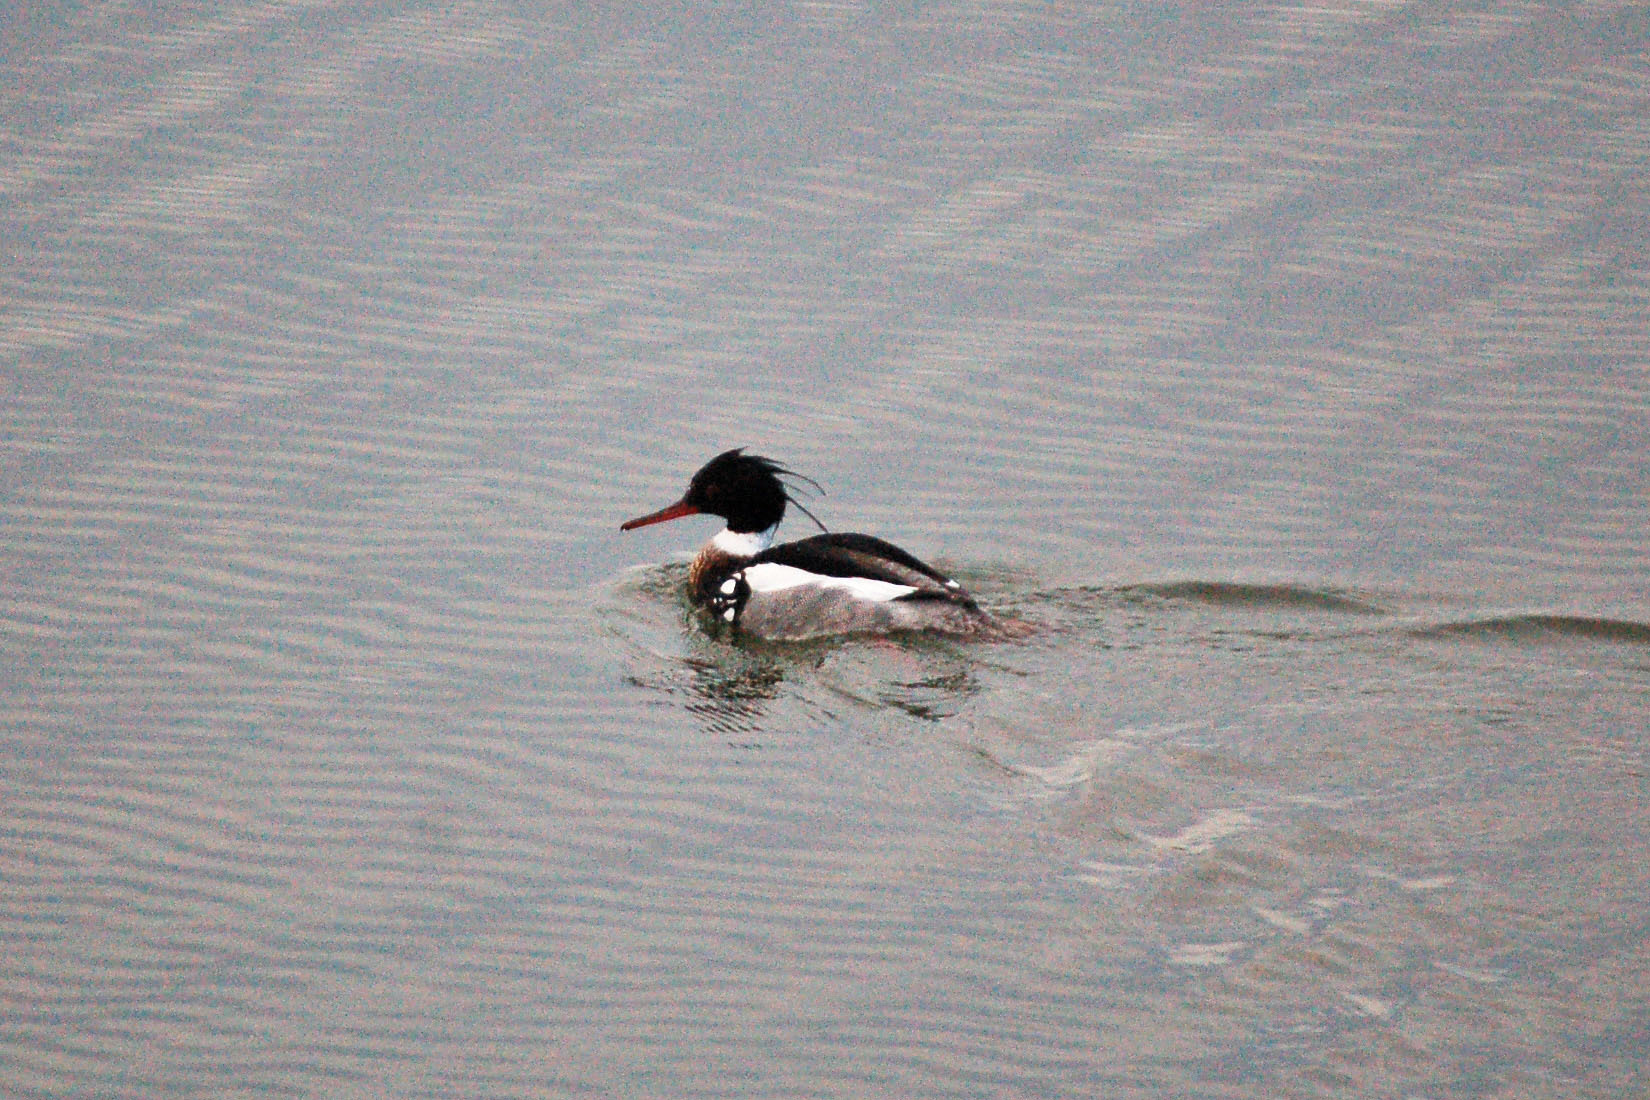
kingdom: Animalia
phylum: Chordata
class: Aves
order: Anseriformes
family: Anatidae
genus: Mergus
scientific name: Mergus serrator
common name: Red-breasted merganser
